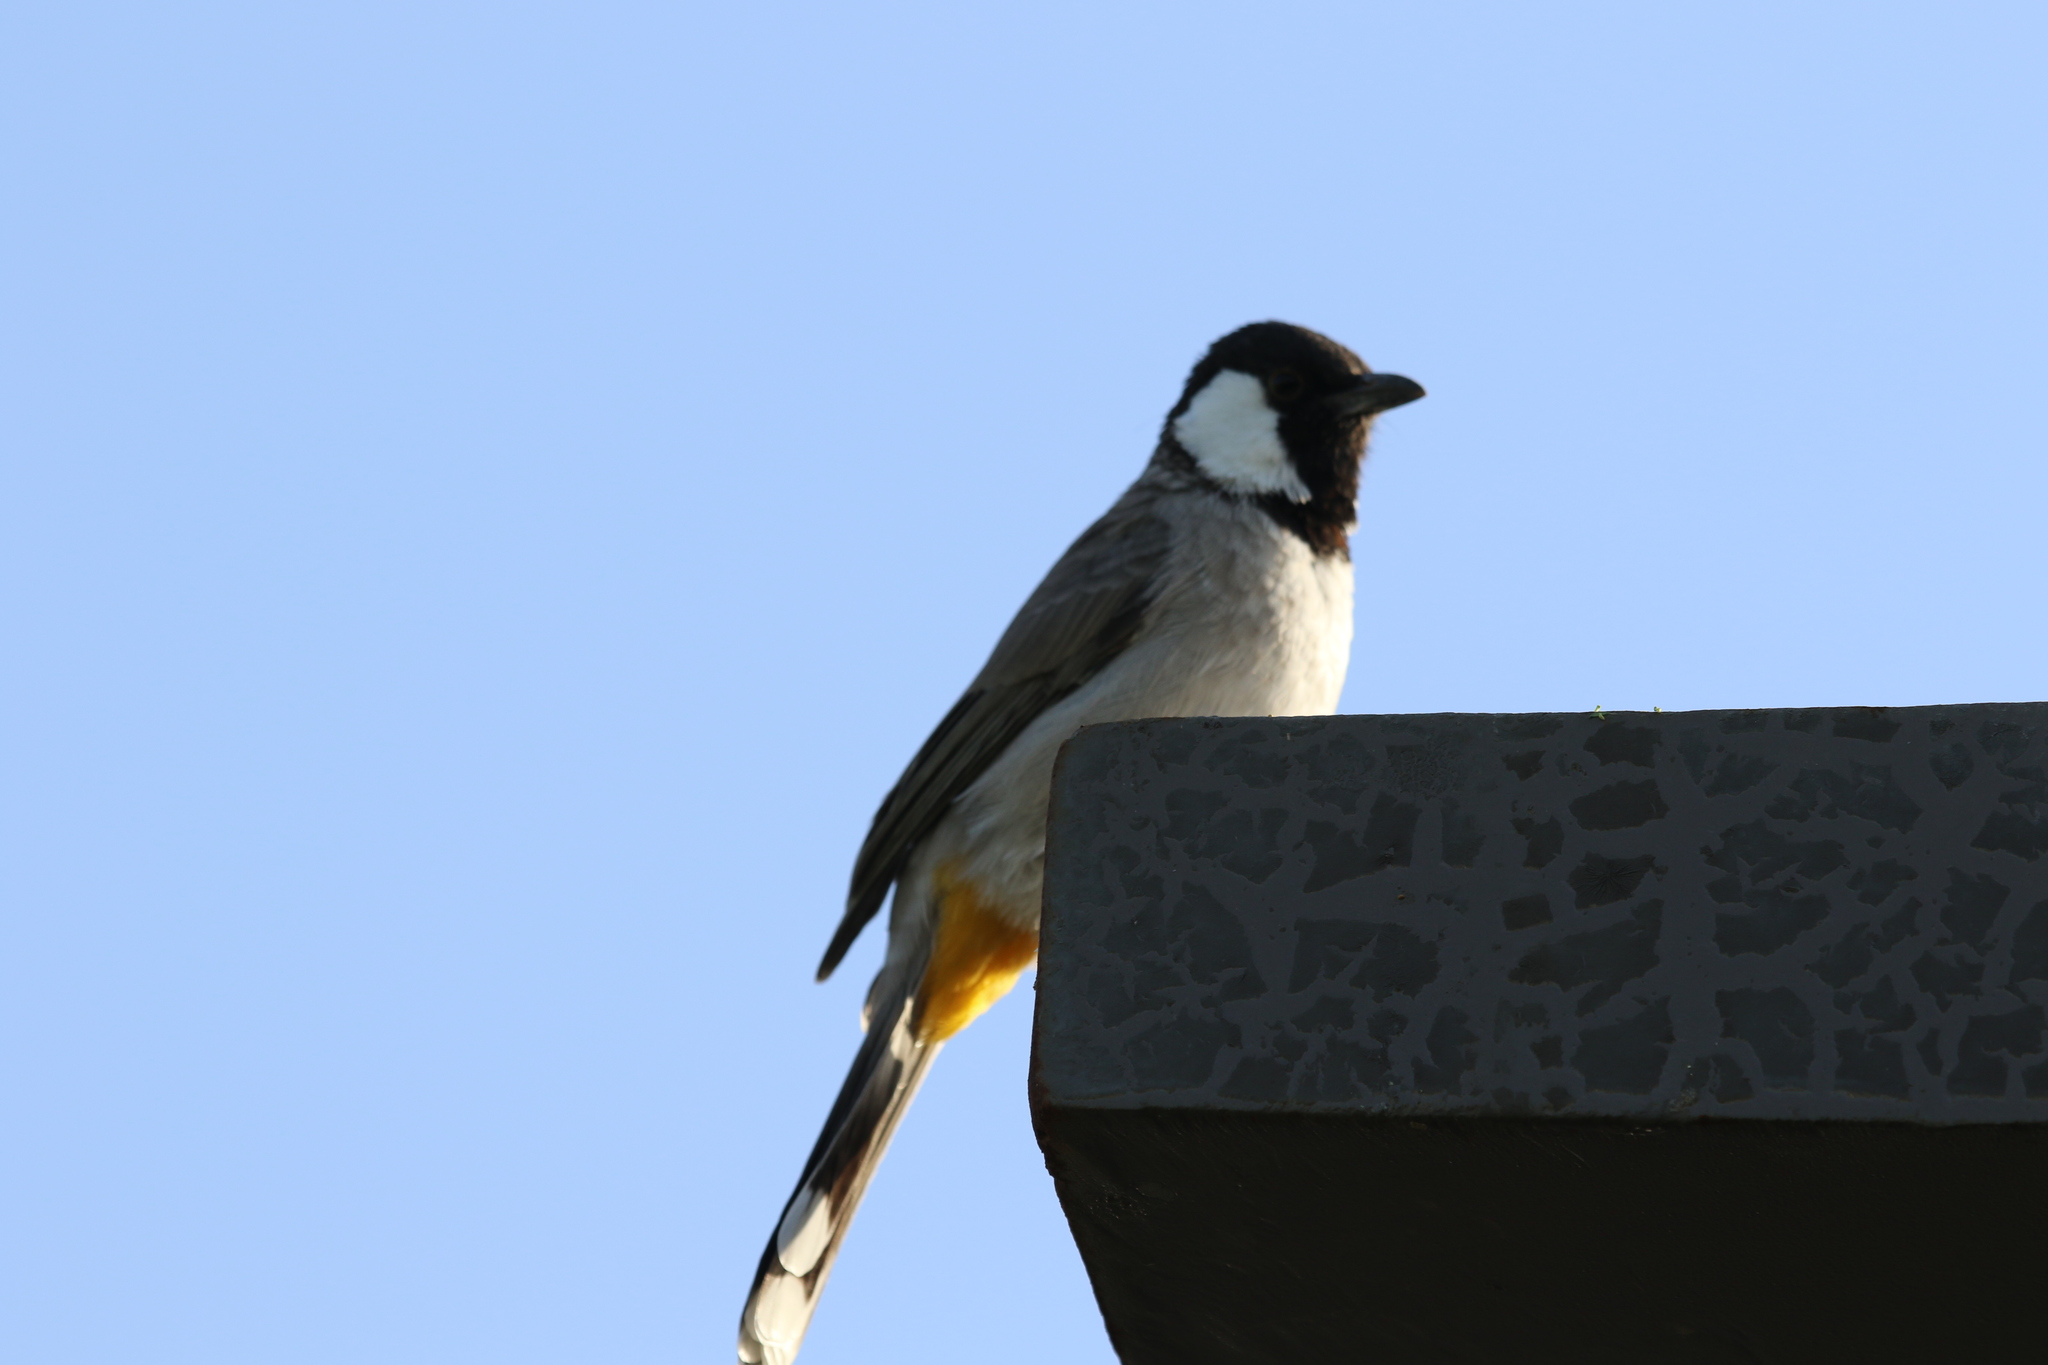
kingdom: Animalia
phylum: Chordata
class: Aves
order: Passeriformes
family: Pycnonotidae
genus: Pycnonotus
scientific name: Pycnonotus leucotis
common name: White-eared bulbul
